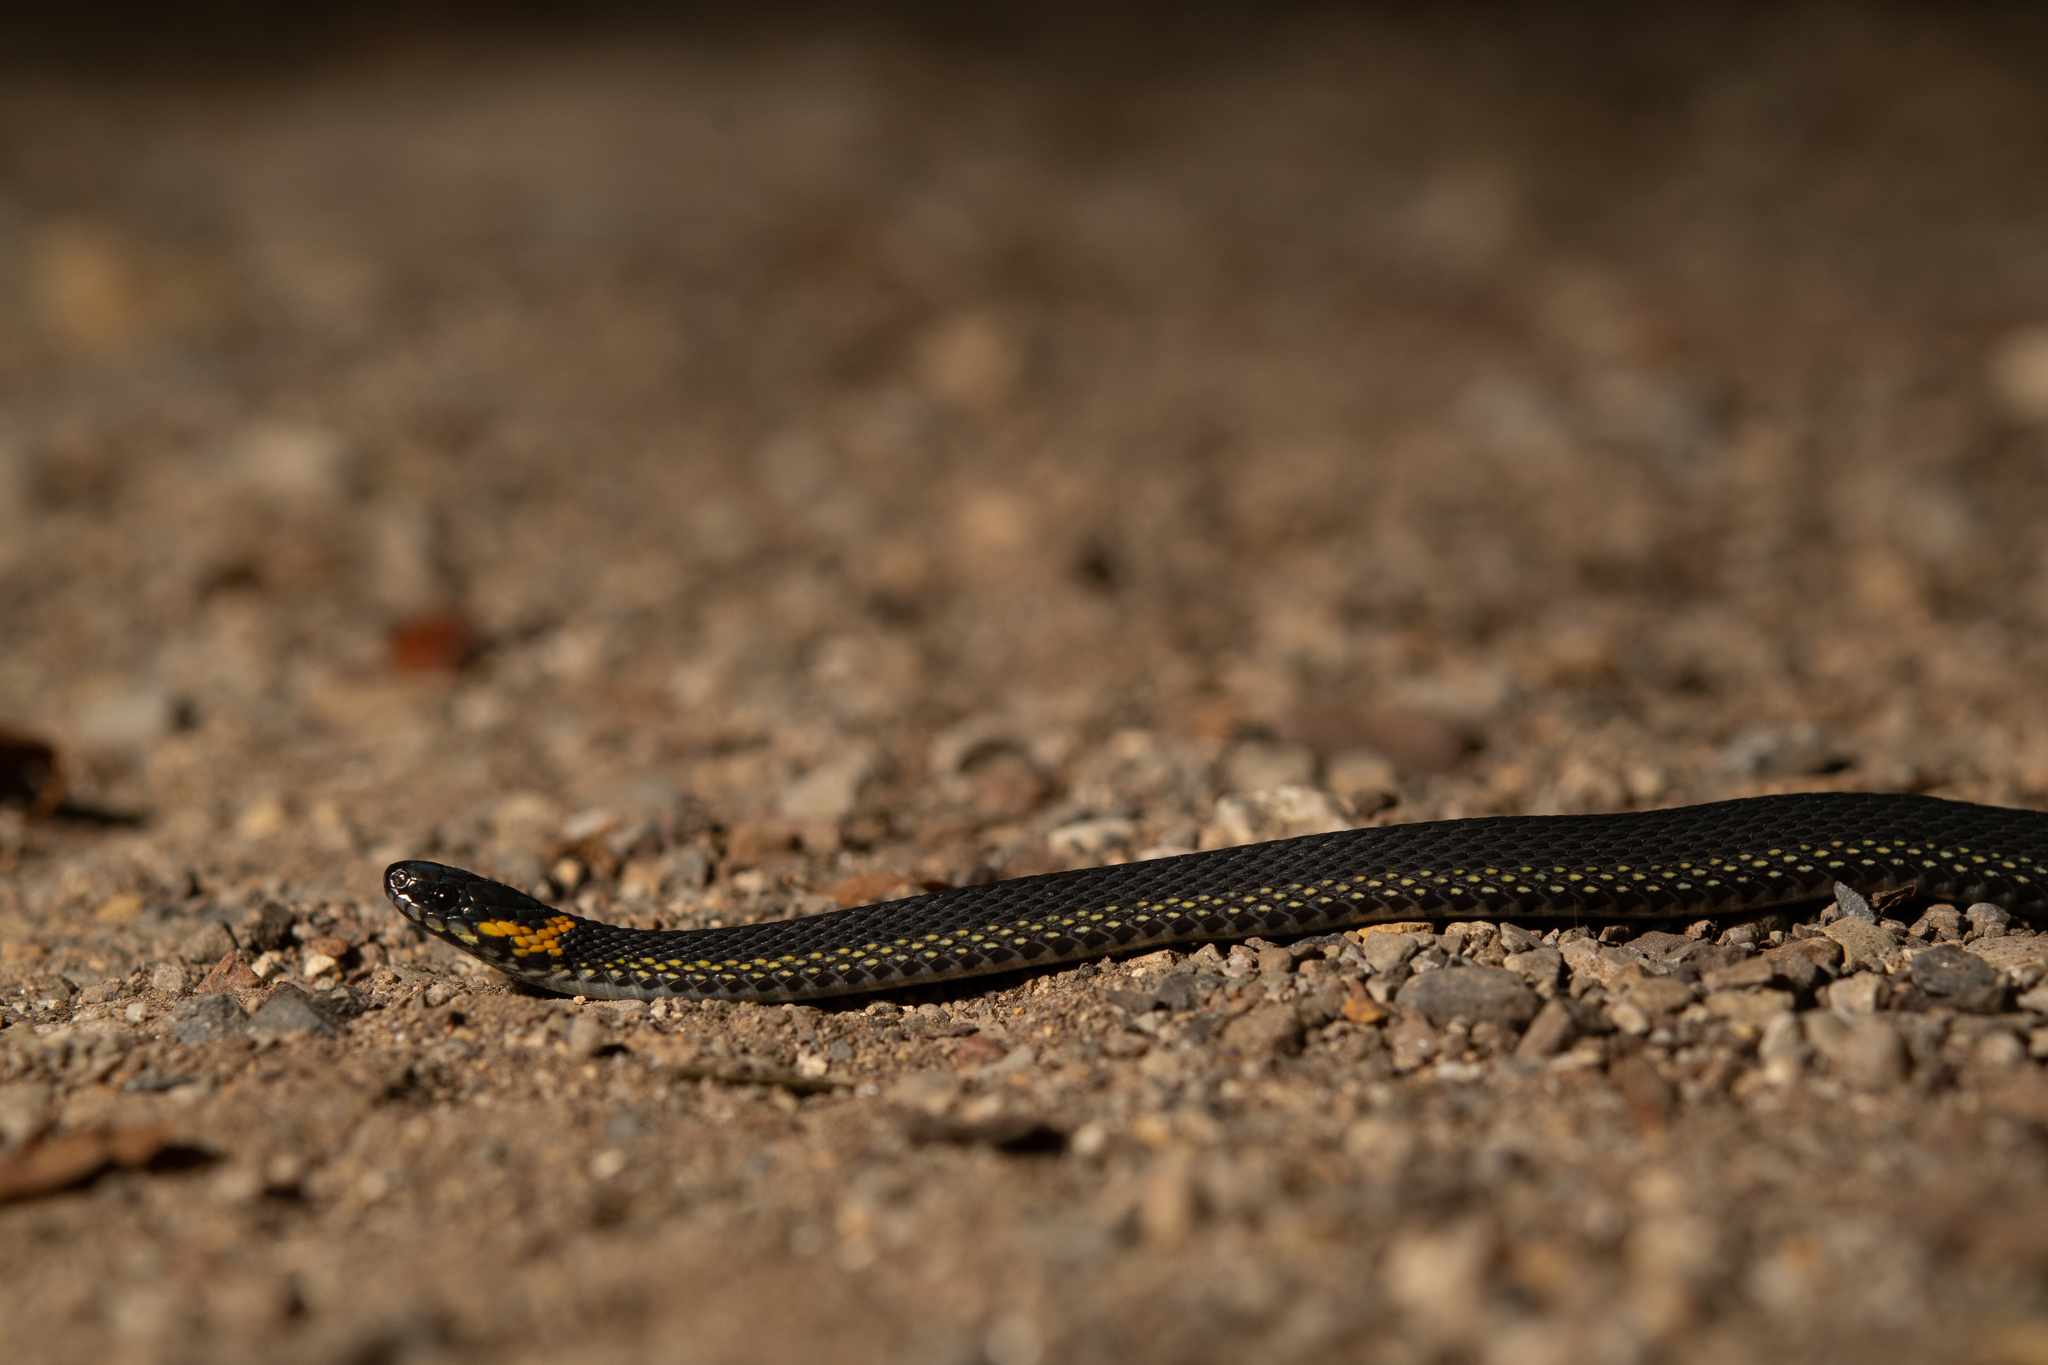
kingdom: Animalia
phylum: Chordata
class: Squamata
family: Colubridae
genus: Ninia
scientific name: Ninia diademata
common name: Ringneck coffee snake
